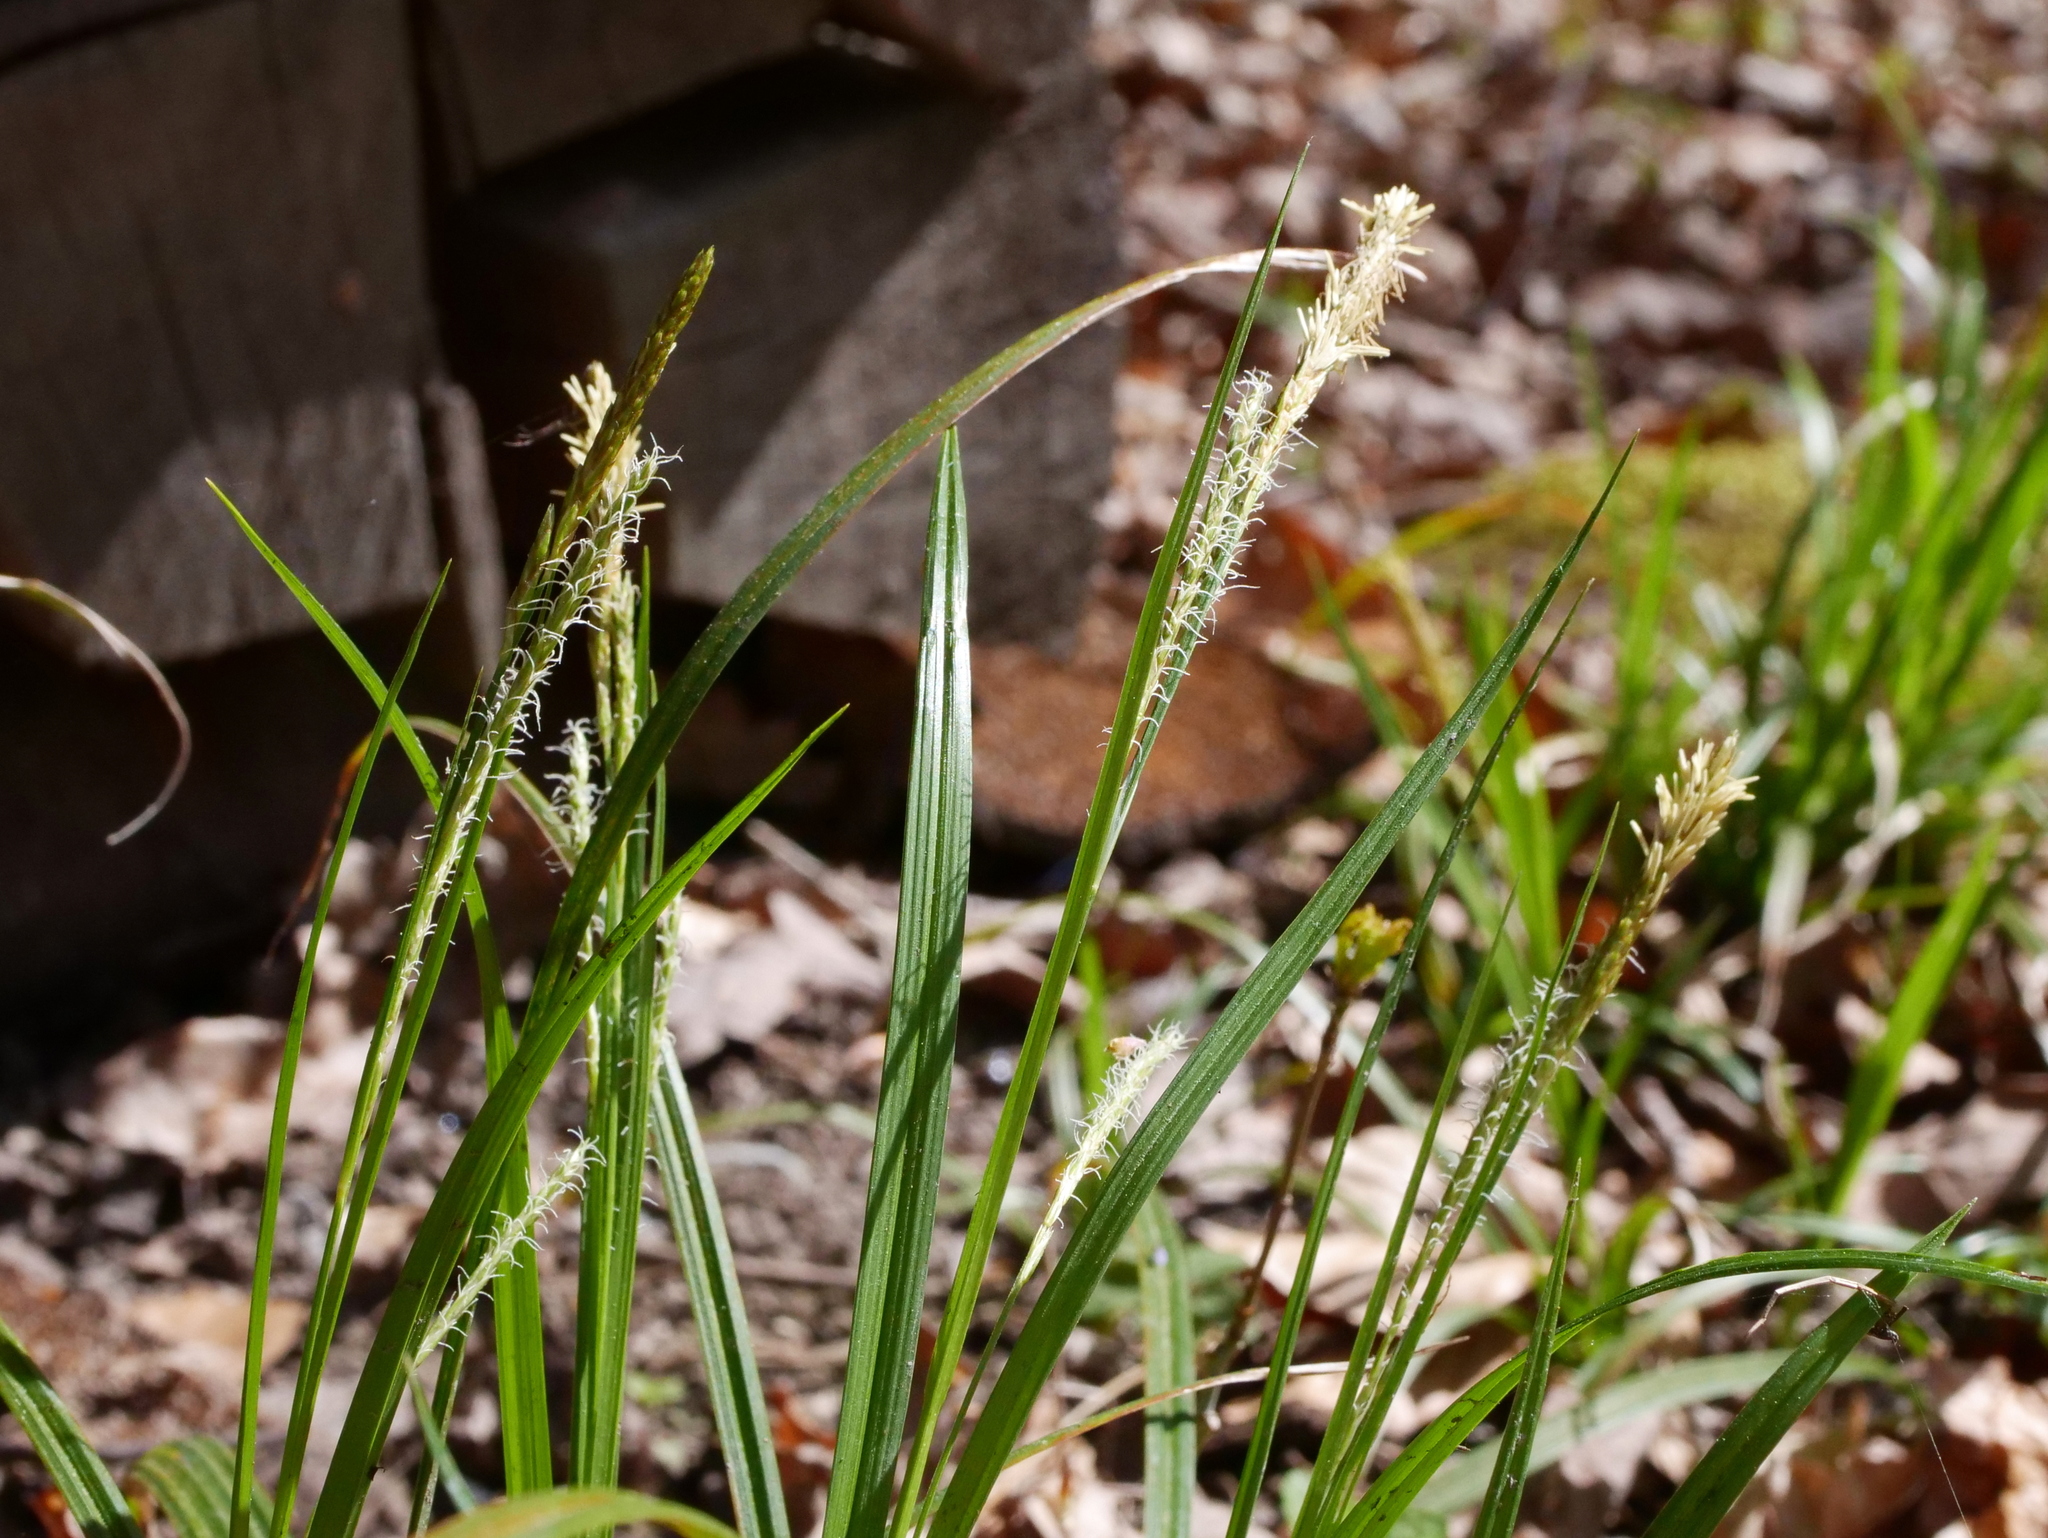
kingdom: Plantae
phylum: Tracheophyta
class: Liliopsida
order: Poales
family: Cyperaceae
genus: Carex
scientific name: Carex sylvatica
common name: Wood-sedge
